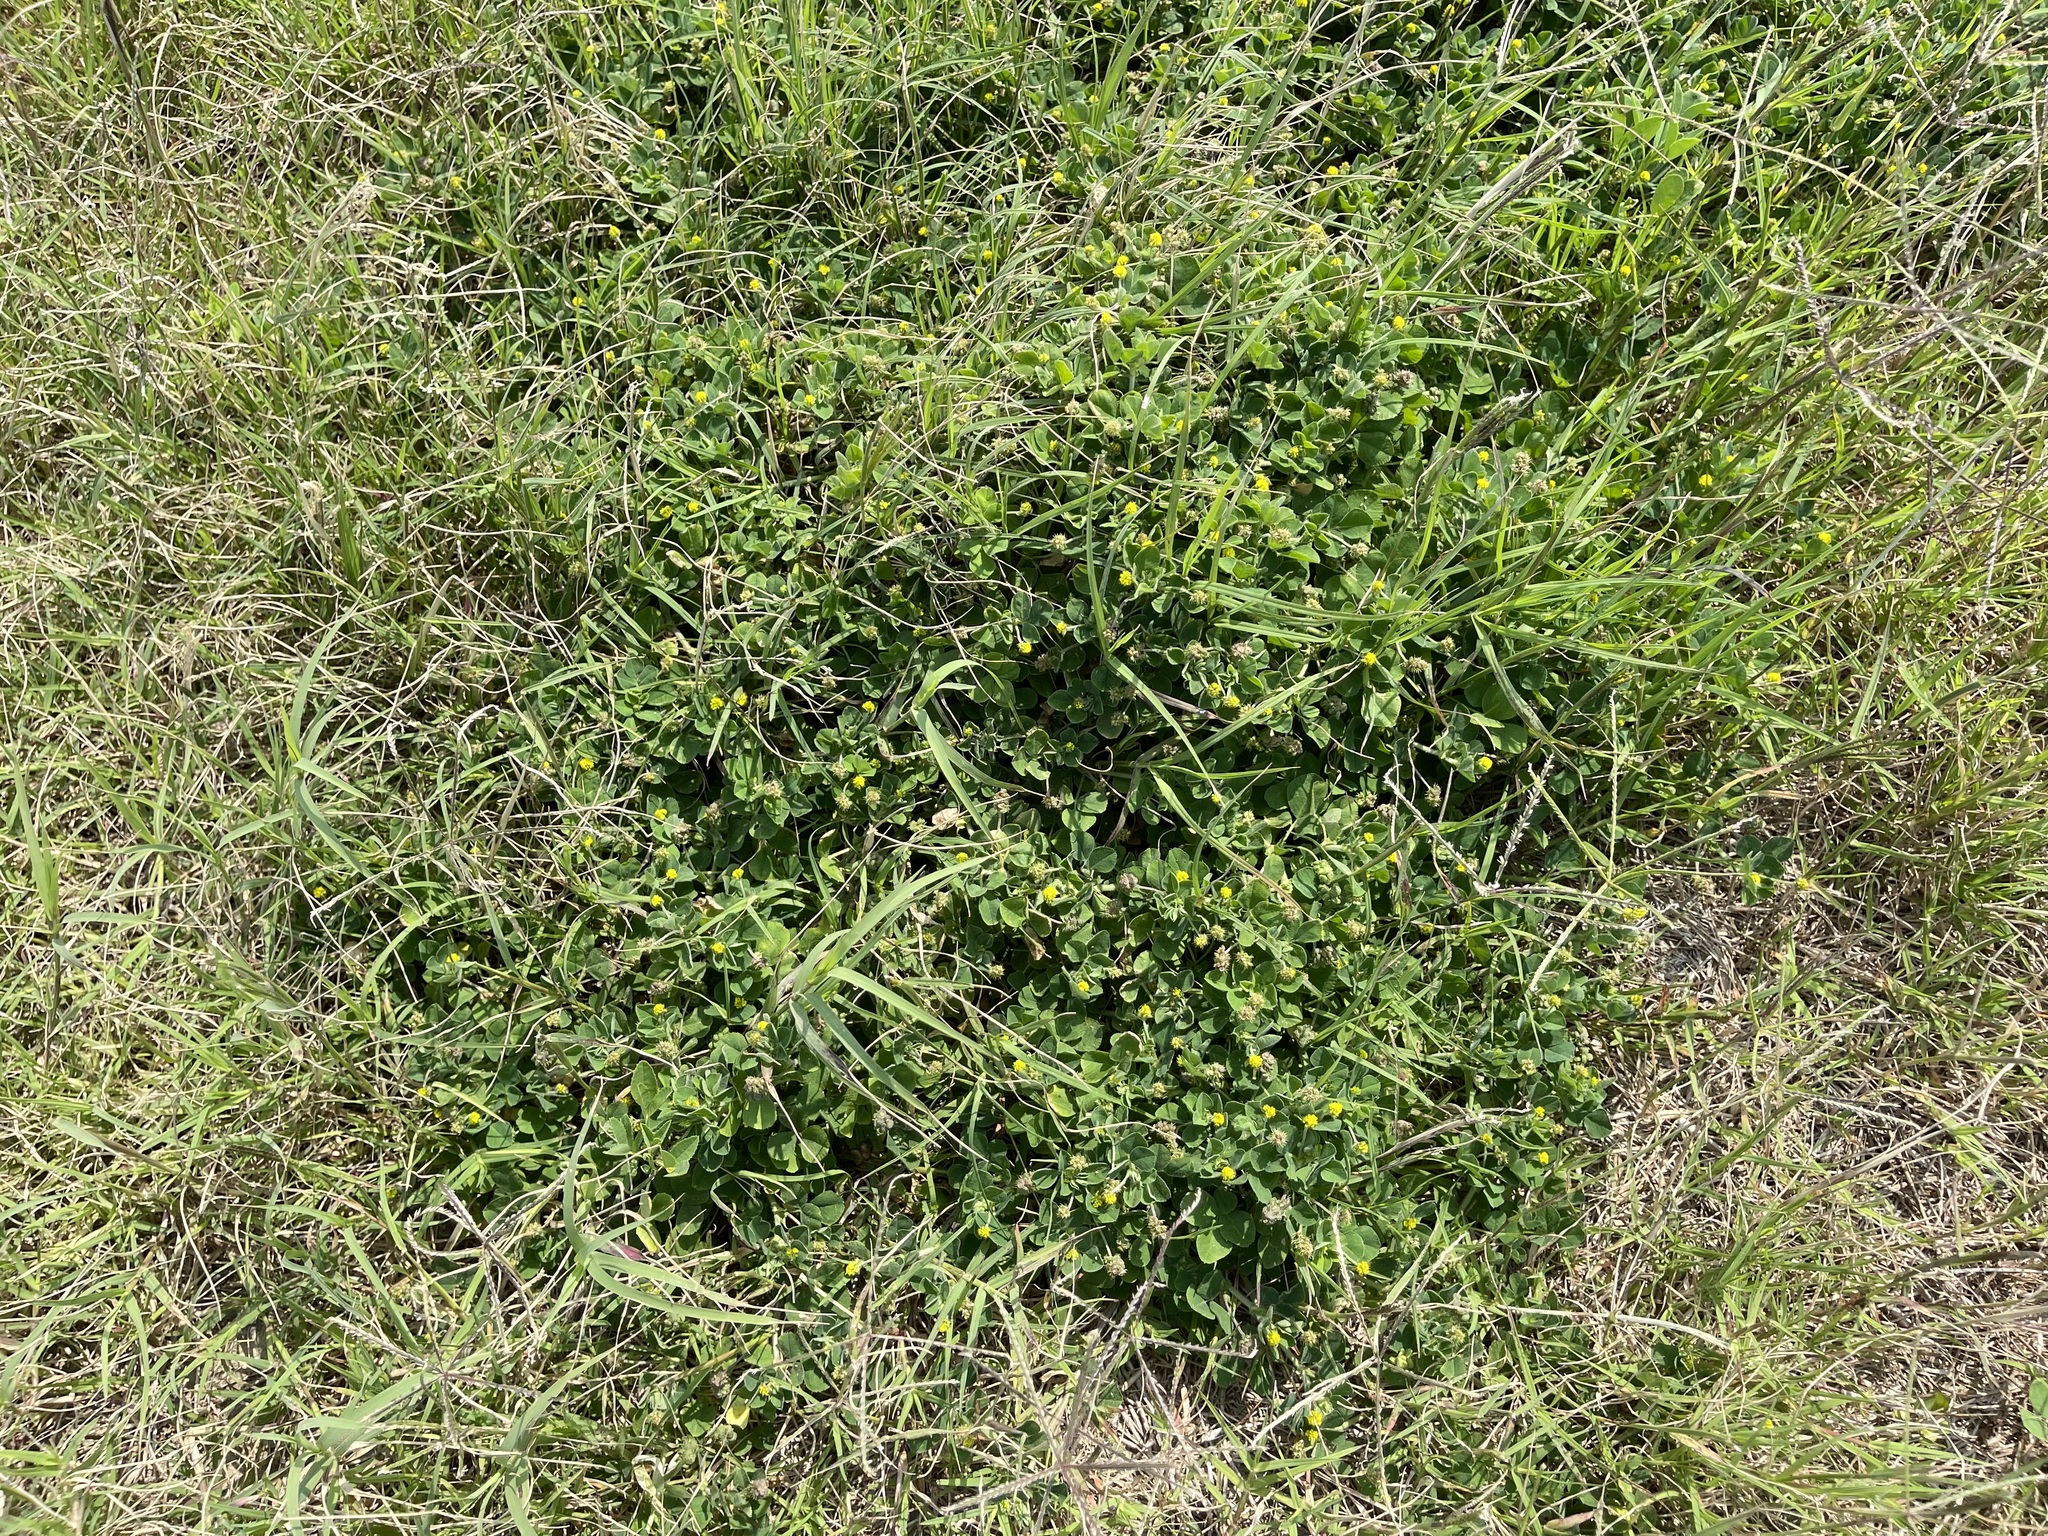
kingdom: Plantae
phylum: Tracheophyta
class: Magnoliopsida
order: Fabales
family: Fabaceae
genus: Medicago
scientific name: Medicago lupulina
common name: Black medick
